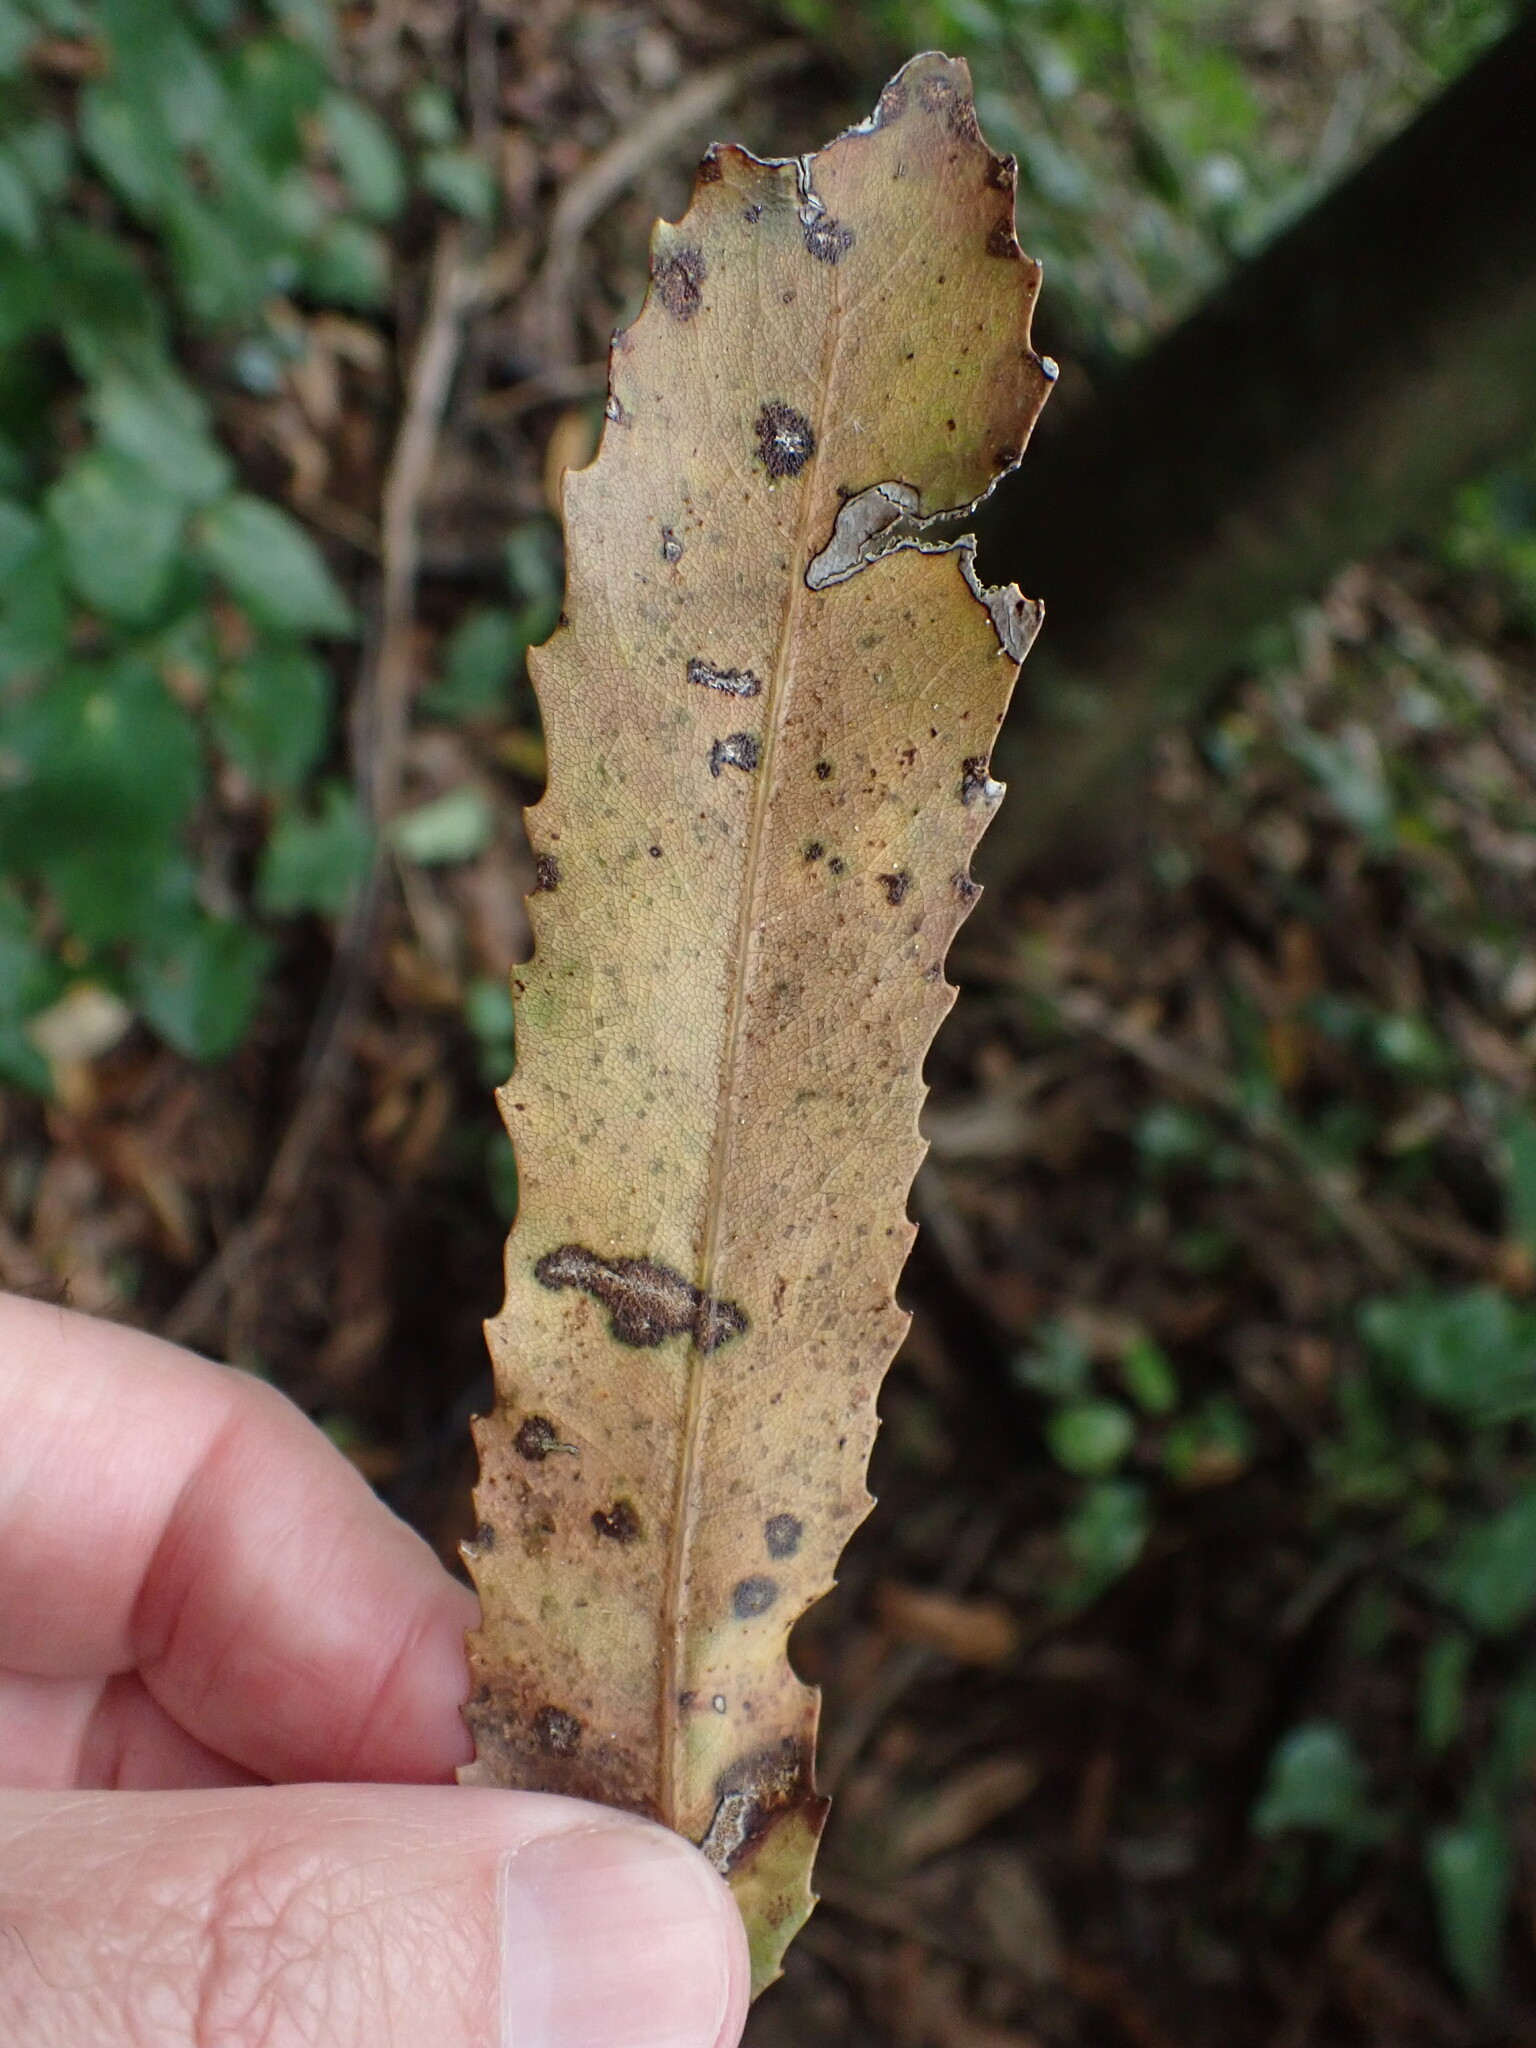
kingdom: Plantae
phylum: Tracheophyta
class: Magnoliopsida
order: Proteales
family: Proteaceae
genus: Knightia
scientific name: Knightia excelsa
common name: New zealand-honeysuckle
